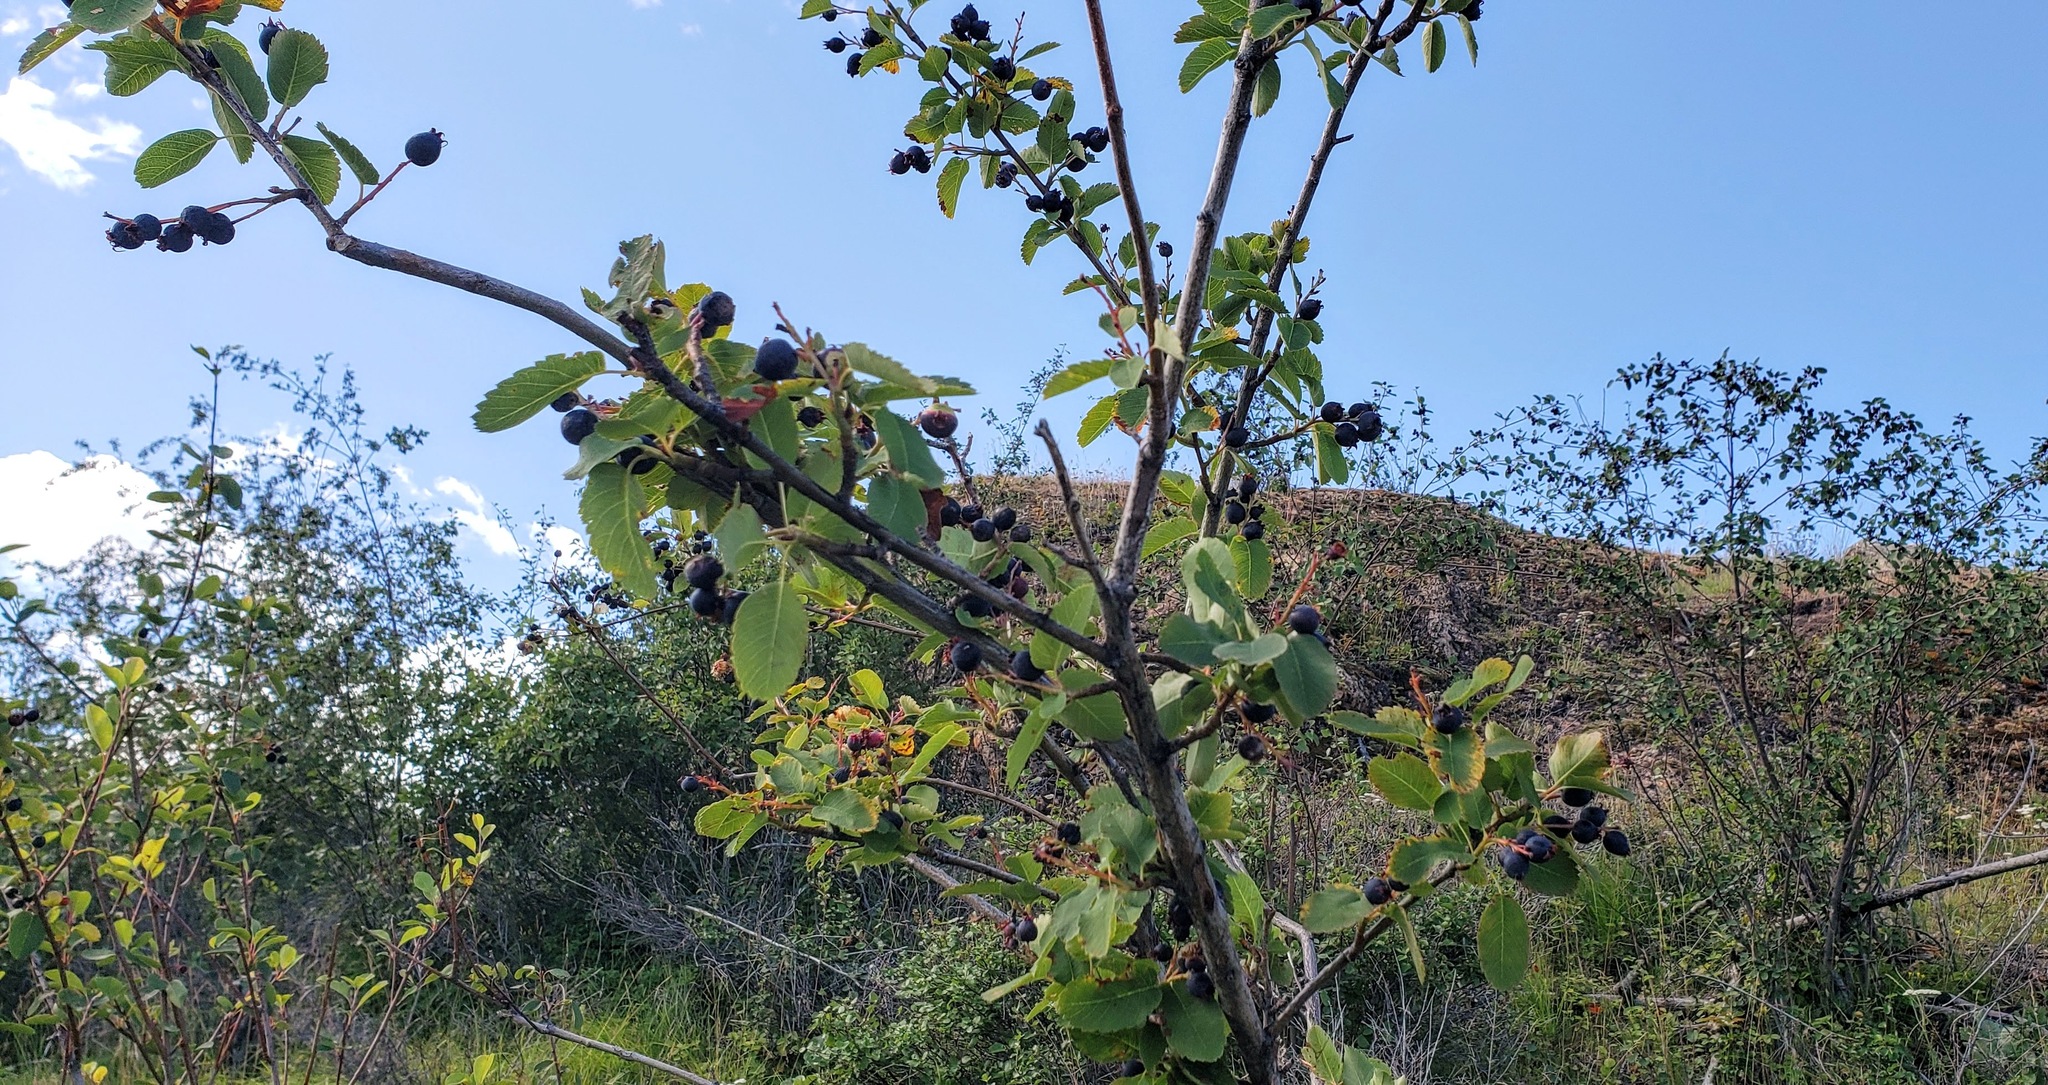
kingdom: Plantae
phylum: Tracheophyta
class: Magnoliopsida
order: Rosales
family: Rosaceae
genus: Amelanchier
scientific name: Amelanchier alnifolia
